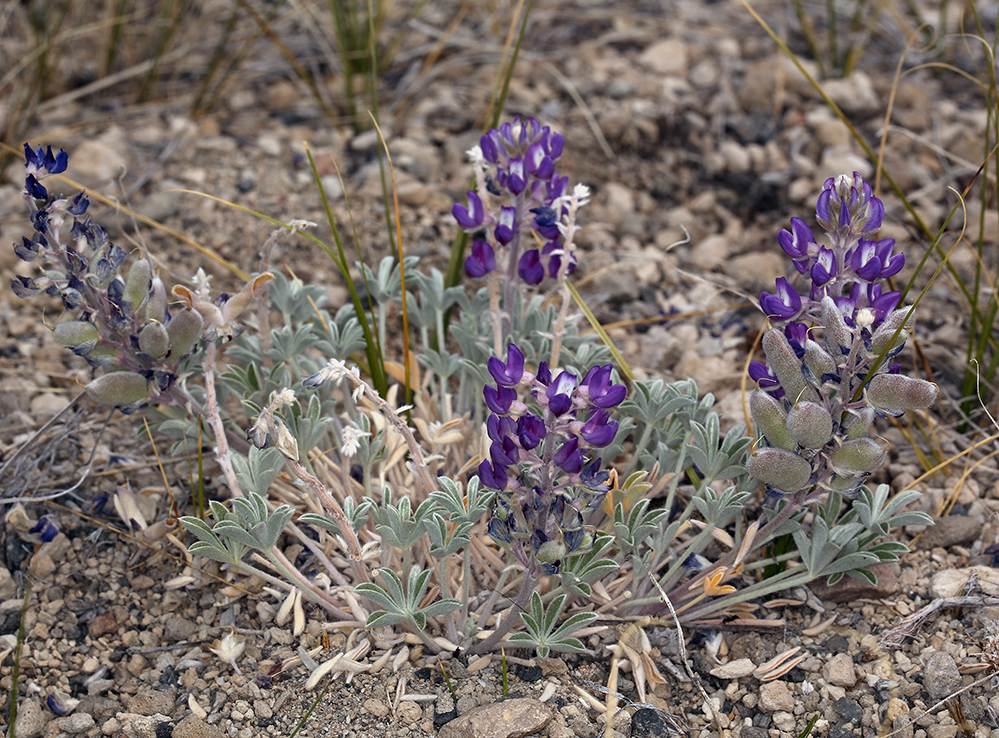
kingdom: Plantae
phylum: Tracheophyta
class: Magnoliopsida
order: Fabales
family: Fabaceae
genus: Lupinus
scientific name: Lupinus duranii
